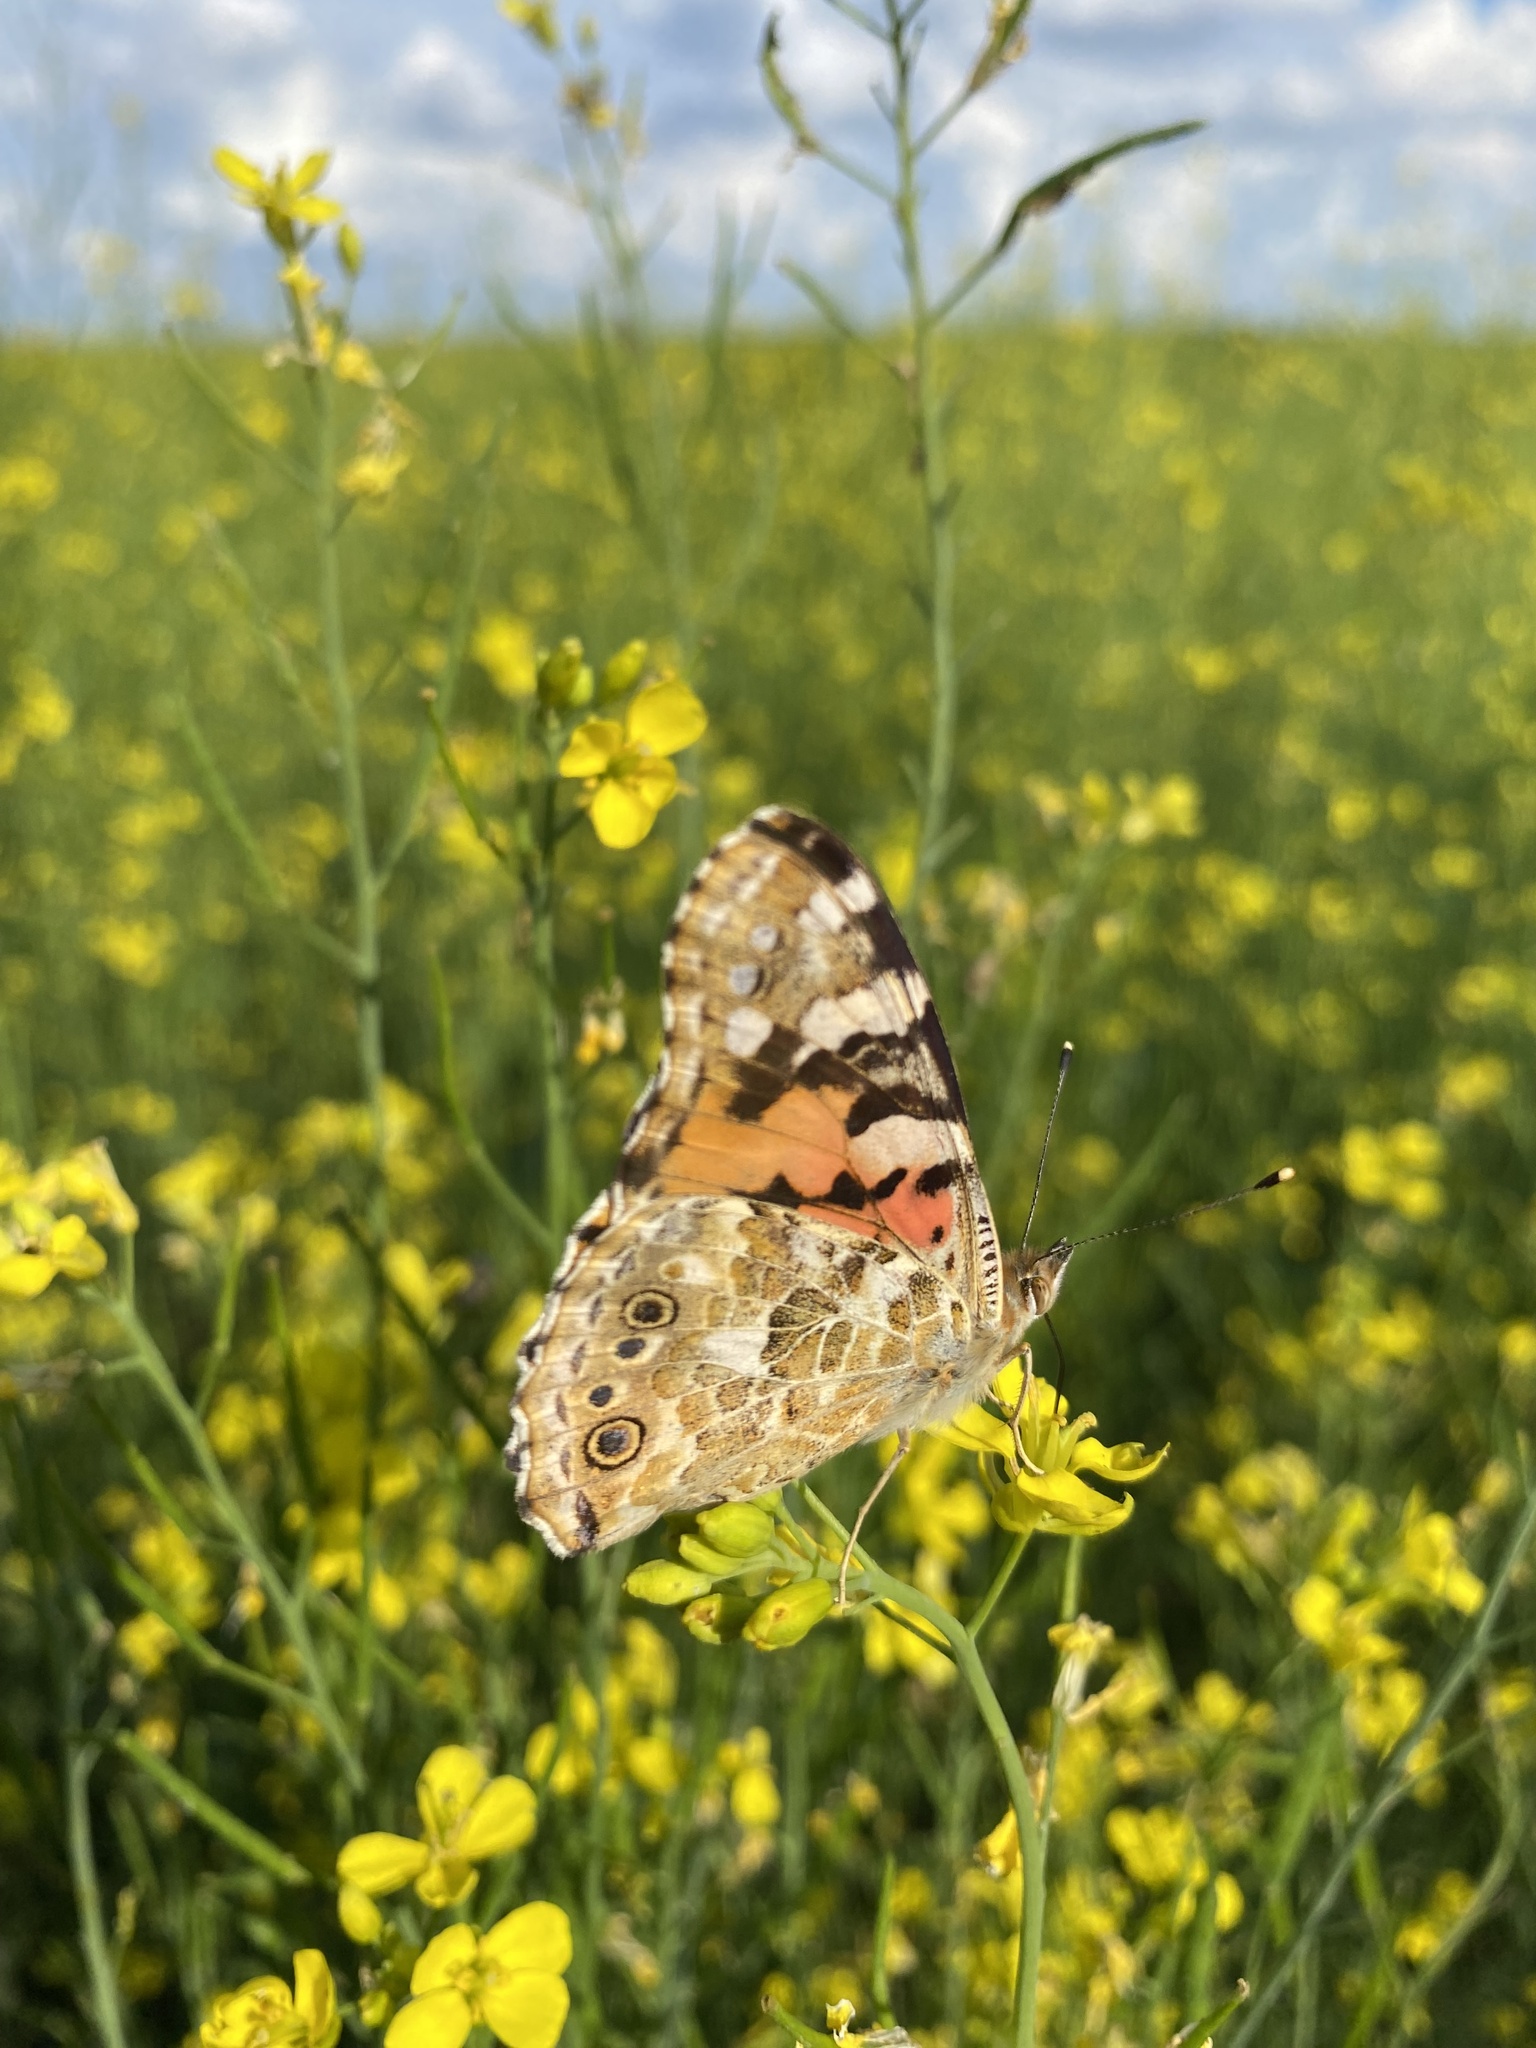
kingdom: Animalia
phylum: Arthropoda
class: Insecta
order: Lepidoptera
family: Nymphalidae
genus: Vanessa
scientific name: Vanessa cardui
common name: Painted lady
